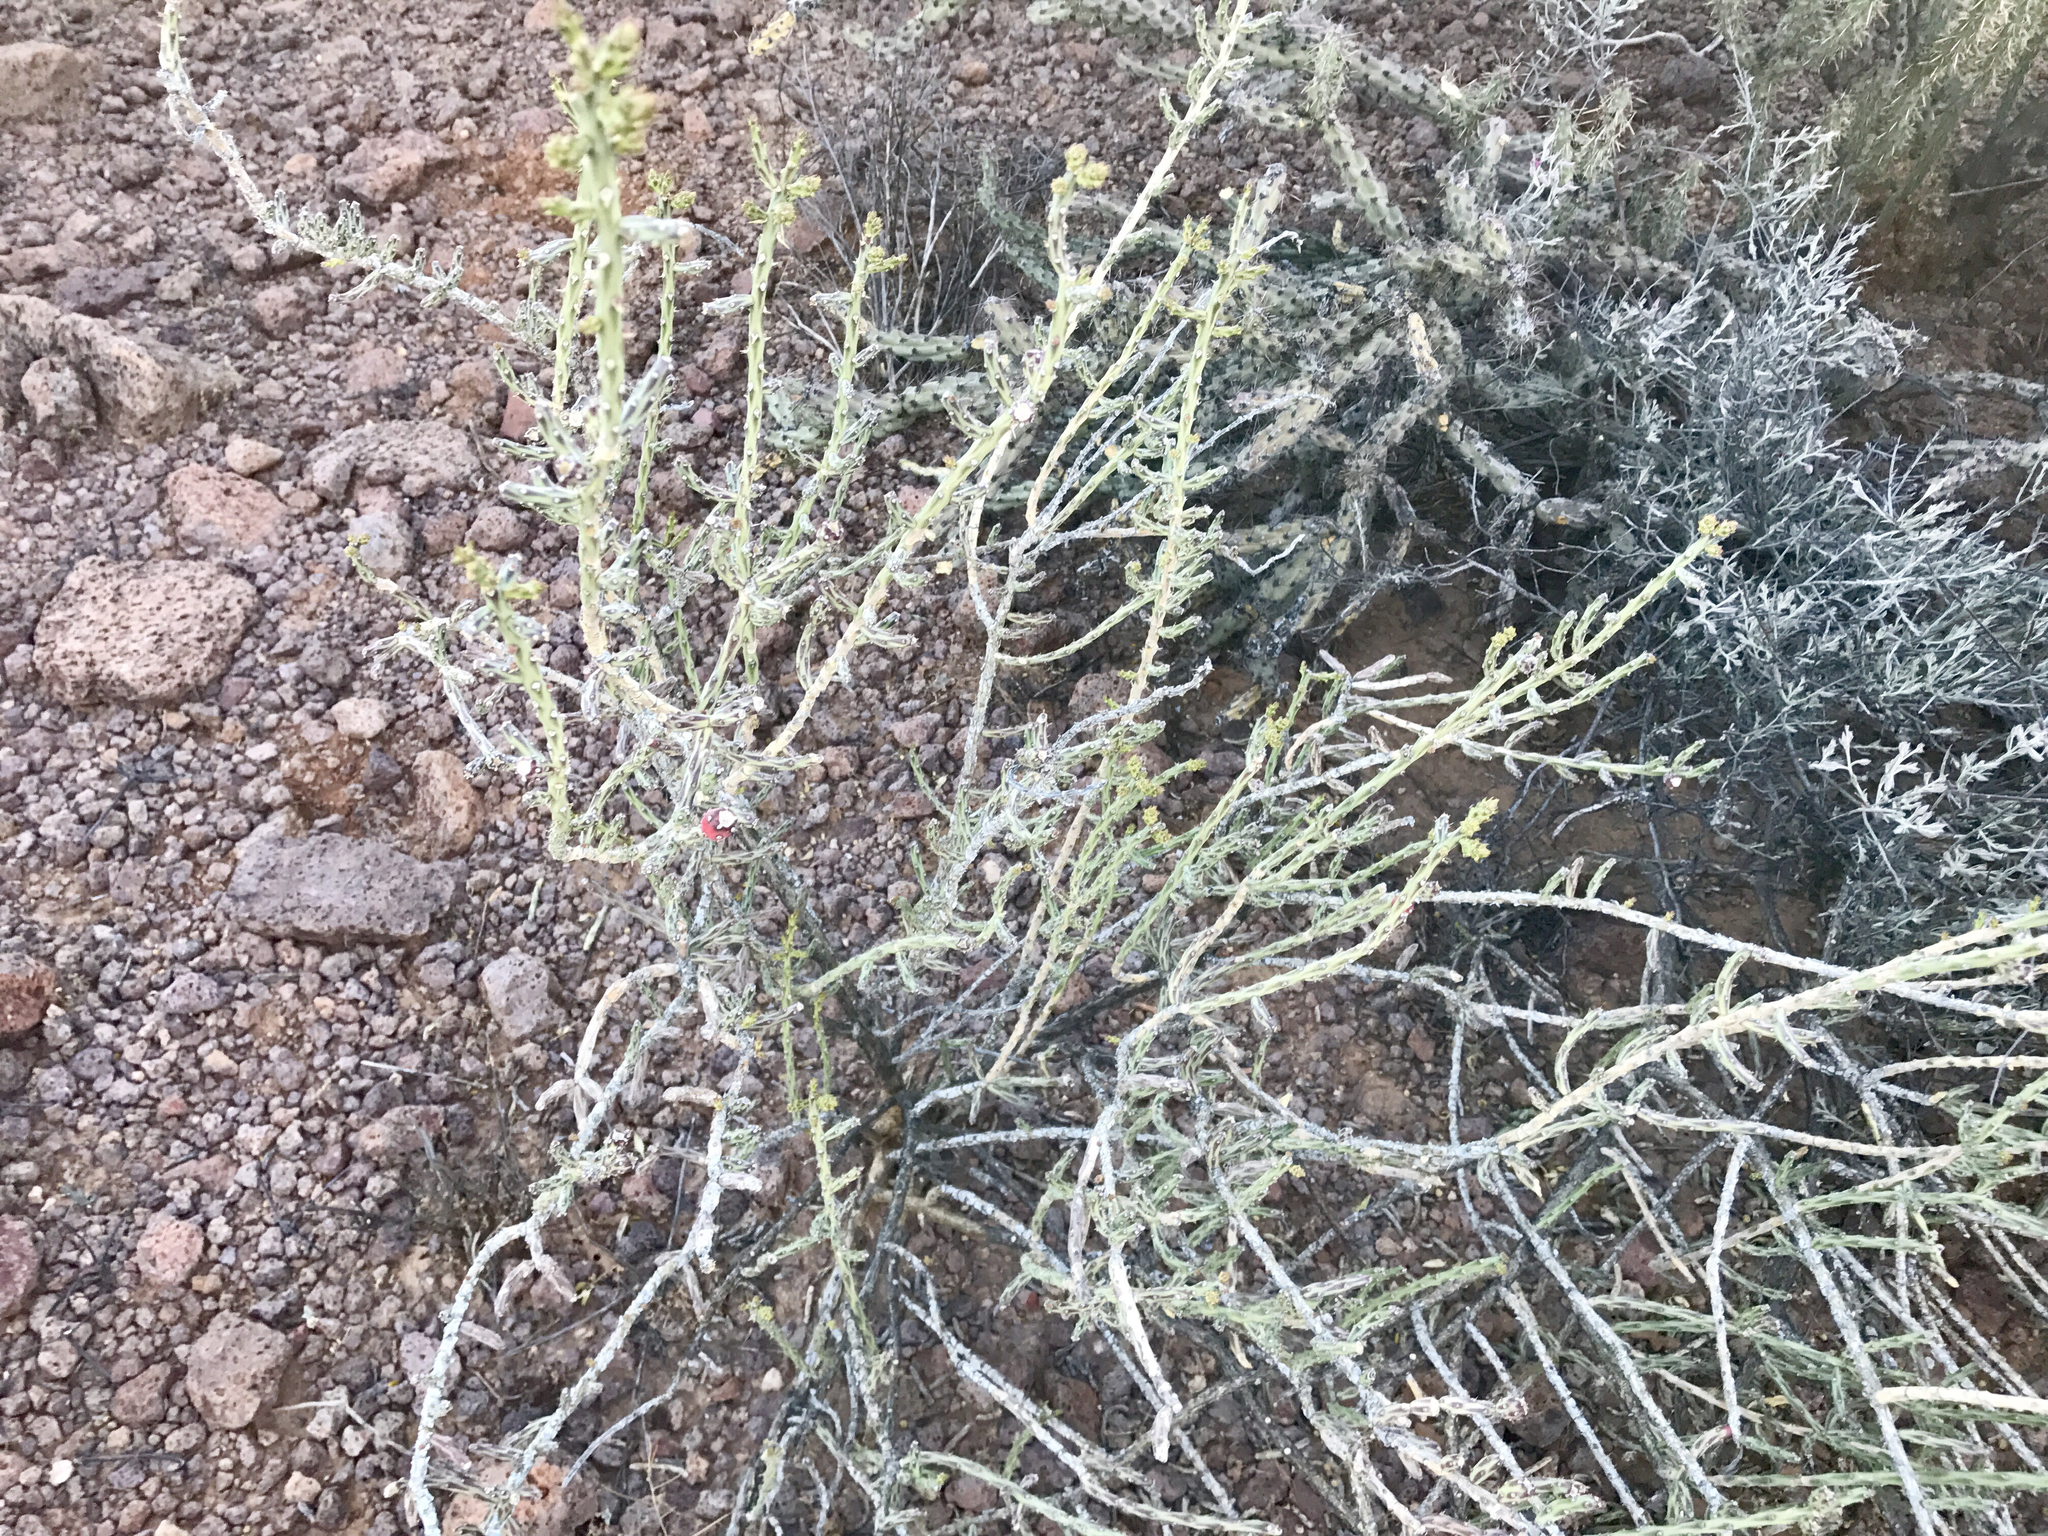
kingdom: Plantae
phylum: Tracheophyta
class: Magnoliopsida
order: Caryophyllales
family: Cactaceae
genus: Cylindropuntia
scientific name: Cylindropuntia leptocaulis
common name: Christmas cactus
